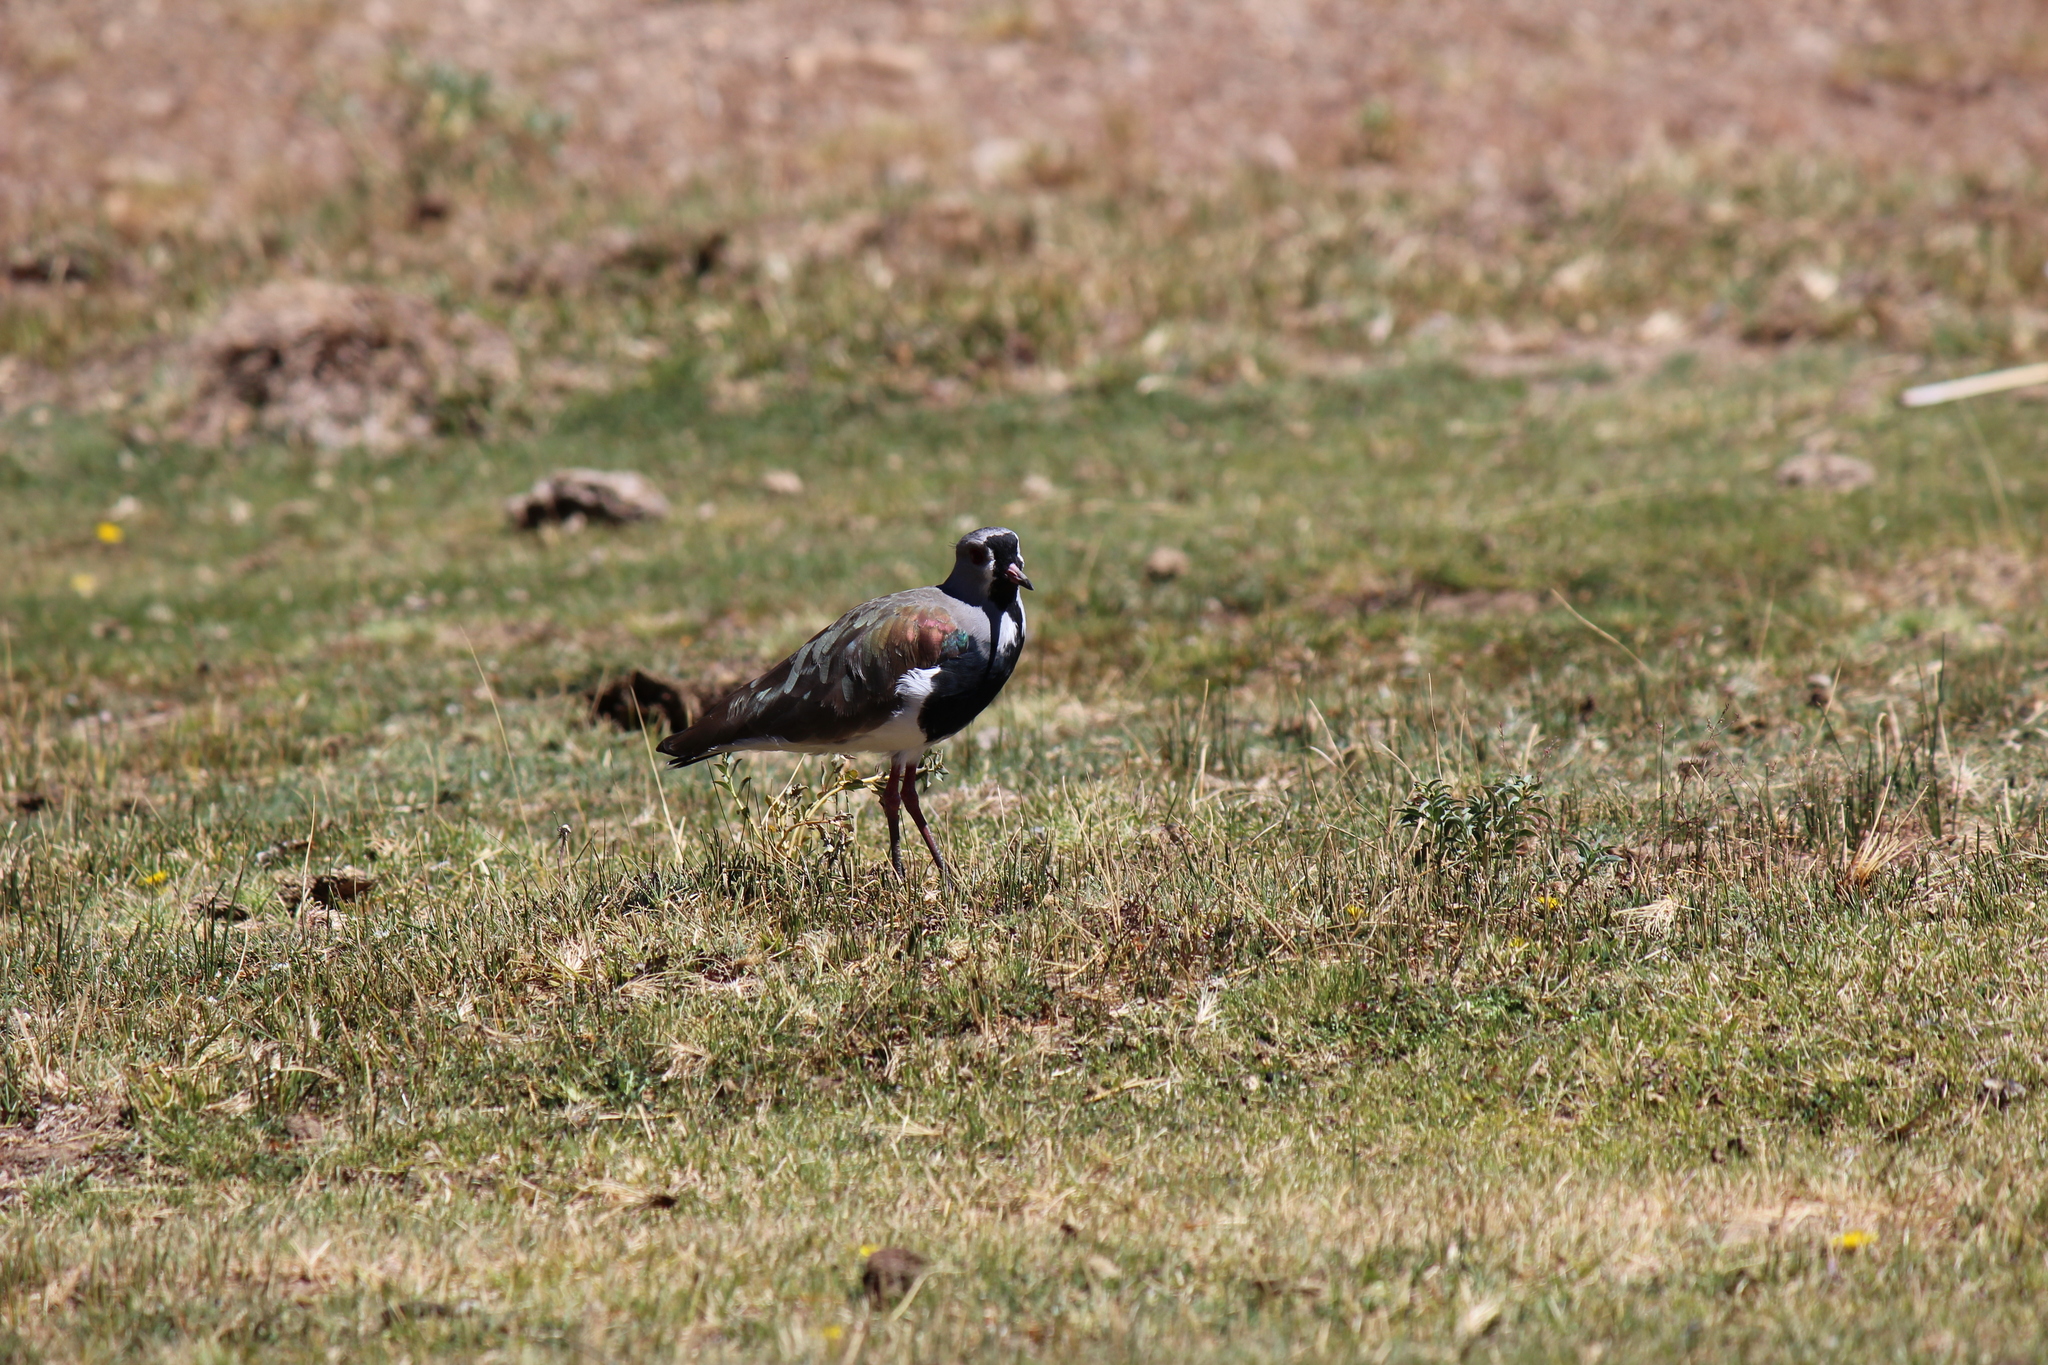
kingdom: Animalia
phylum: Chordata
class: Aves
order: Charadriiformes
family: Charadriidae
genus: Vanellus
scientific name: Vanellus chilensis
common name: Southern lapwing
